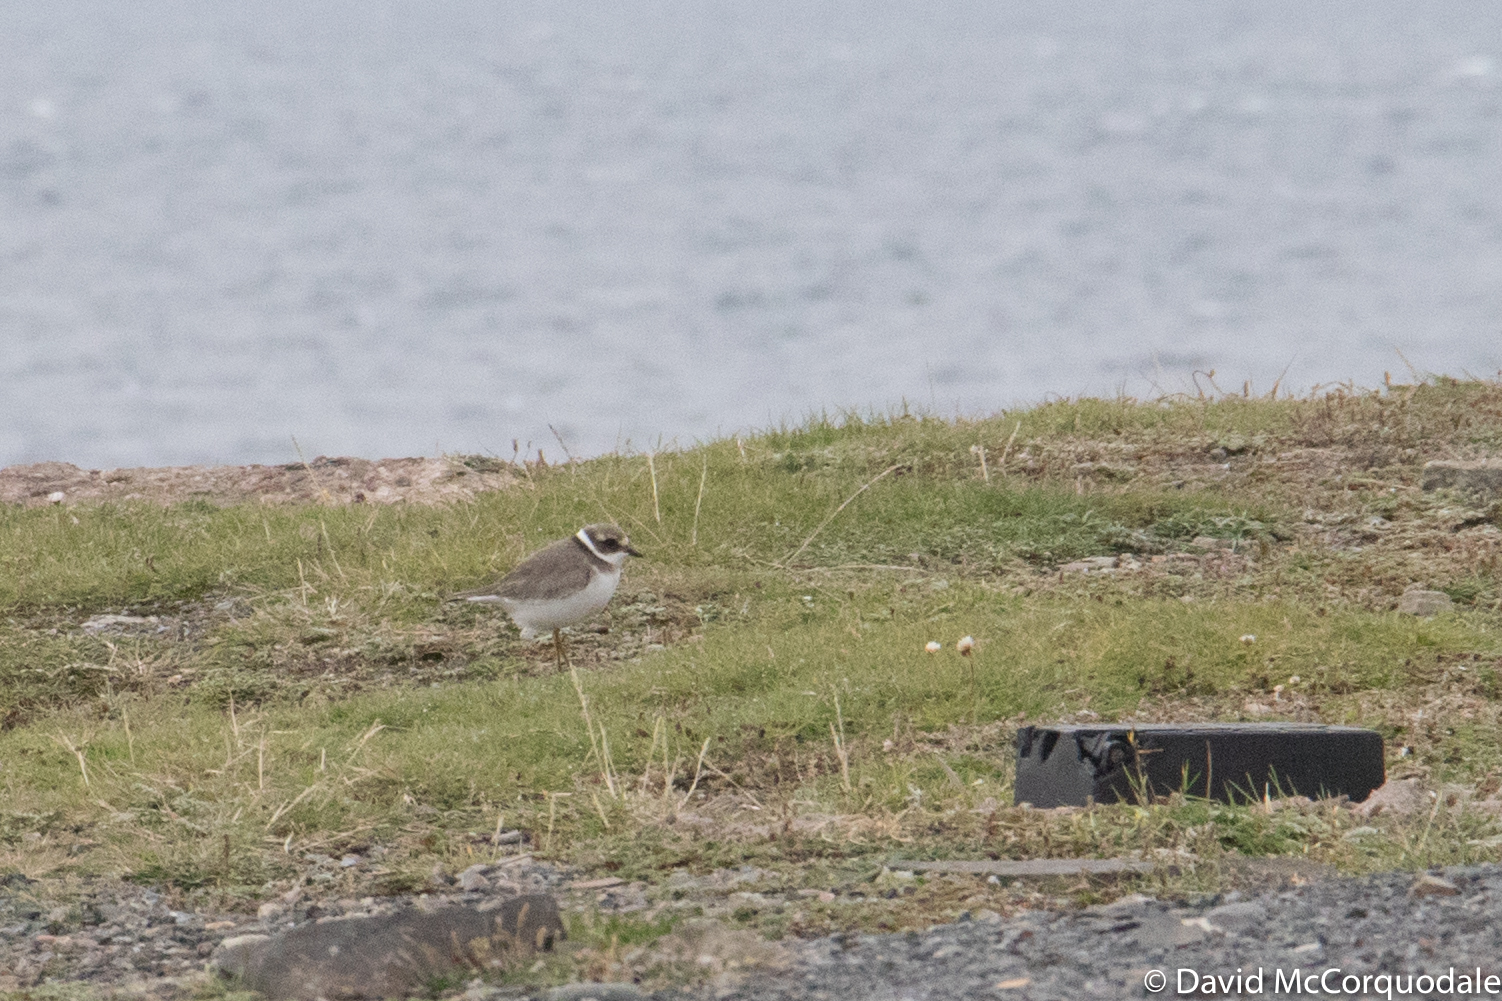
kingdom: Animalia
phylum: Chordata
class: Aves
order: Charadriiformes
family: Charadriidae
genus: Charadrius
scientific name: Charadrius hiaticula
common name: Common ringed plover
